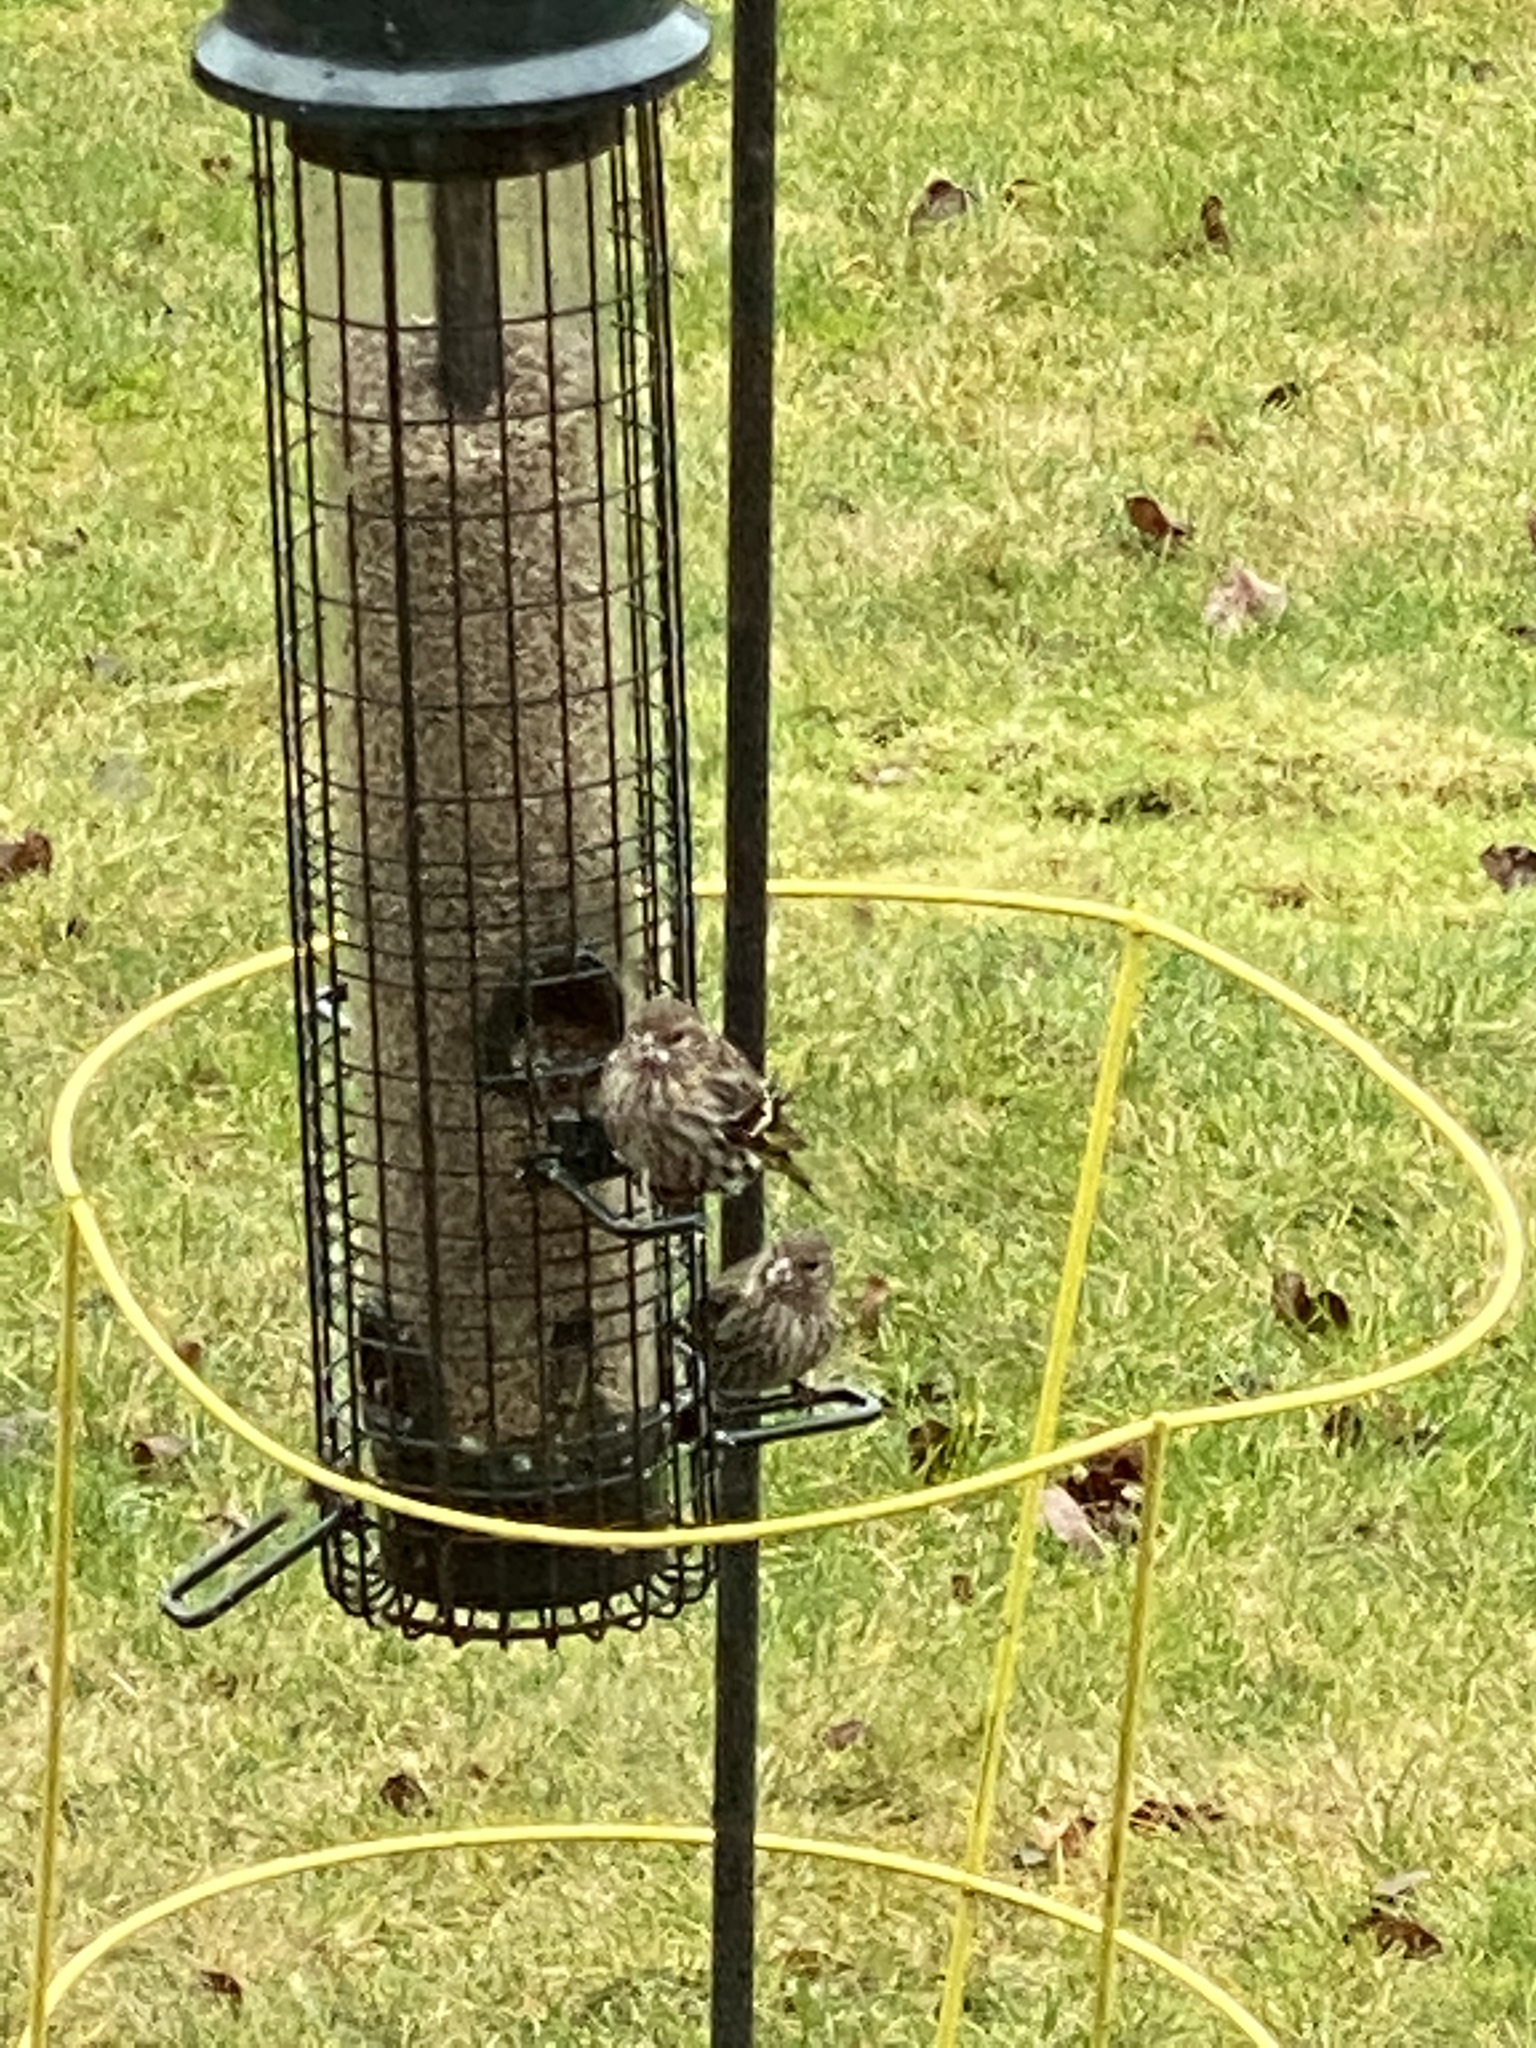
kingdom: Animalia
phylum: Chordata
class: Aves
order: Passeriformes
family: Fringillidae
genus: Spinus
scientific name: Spinus pinus
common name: Pine siskin
